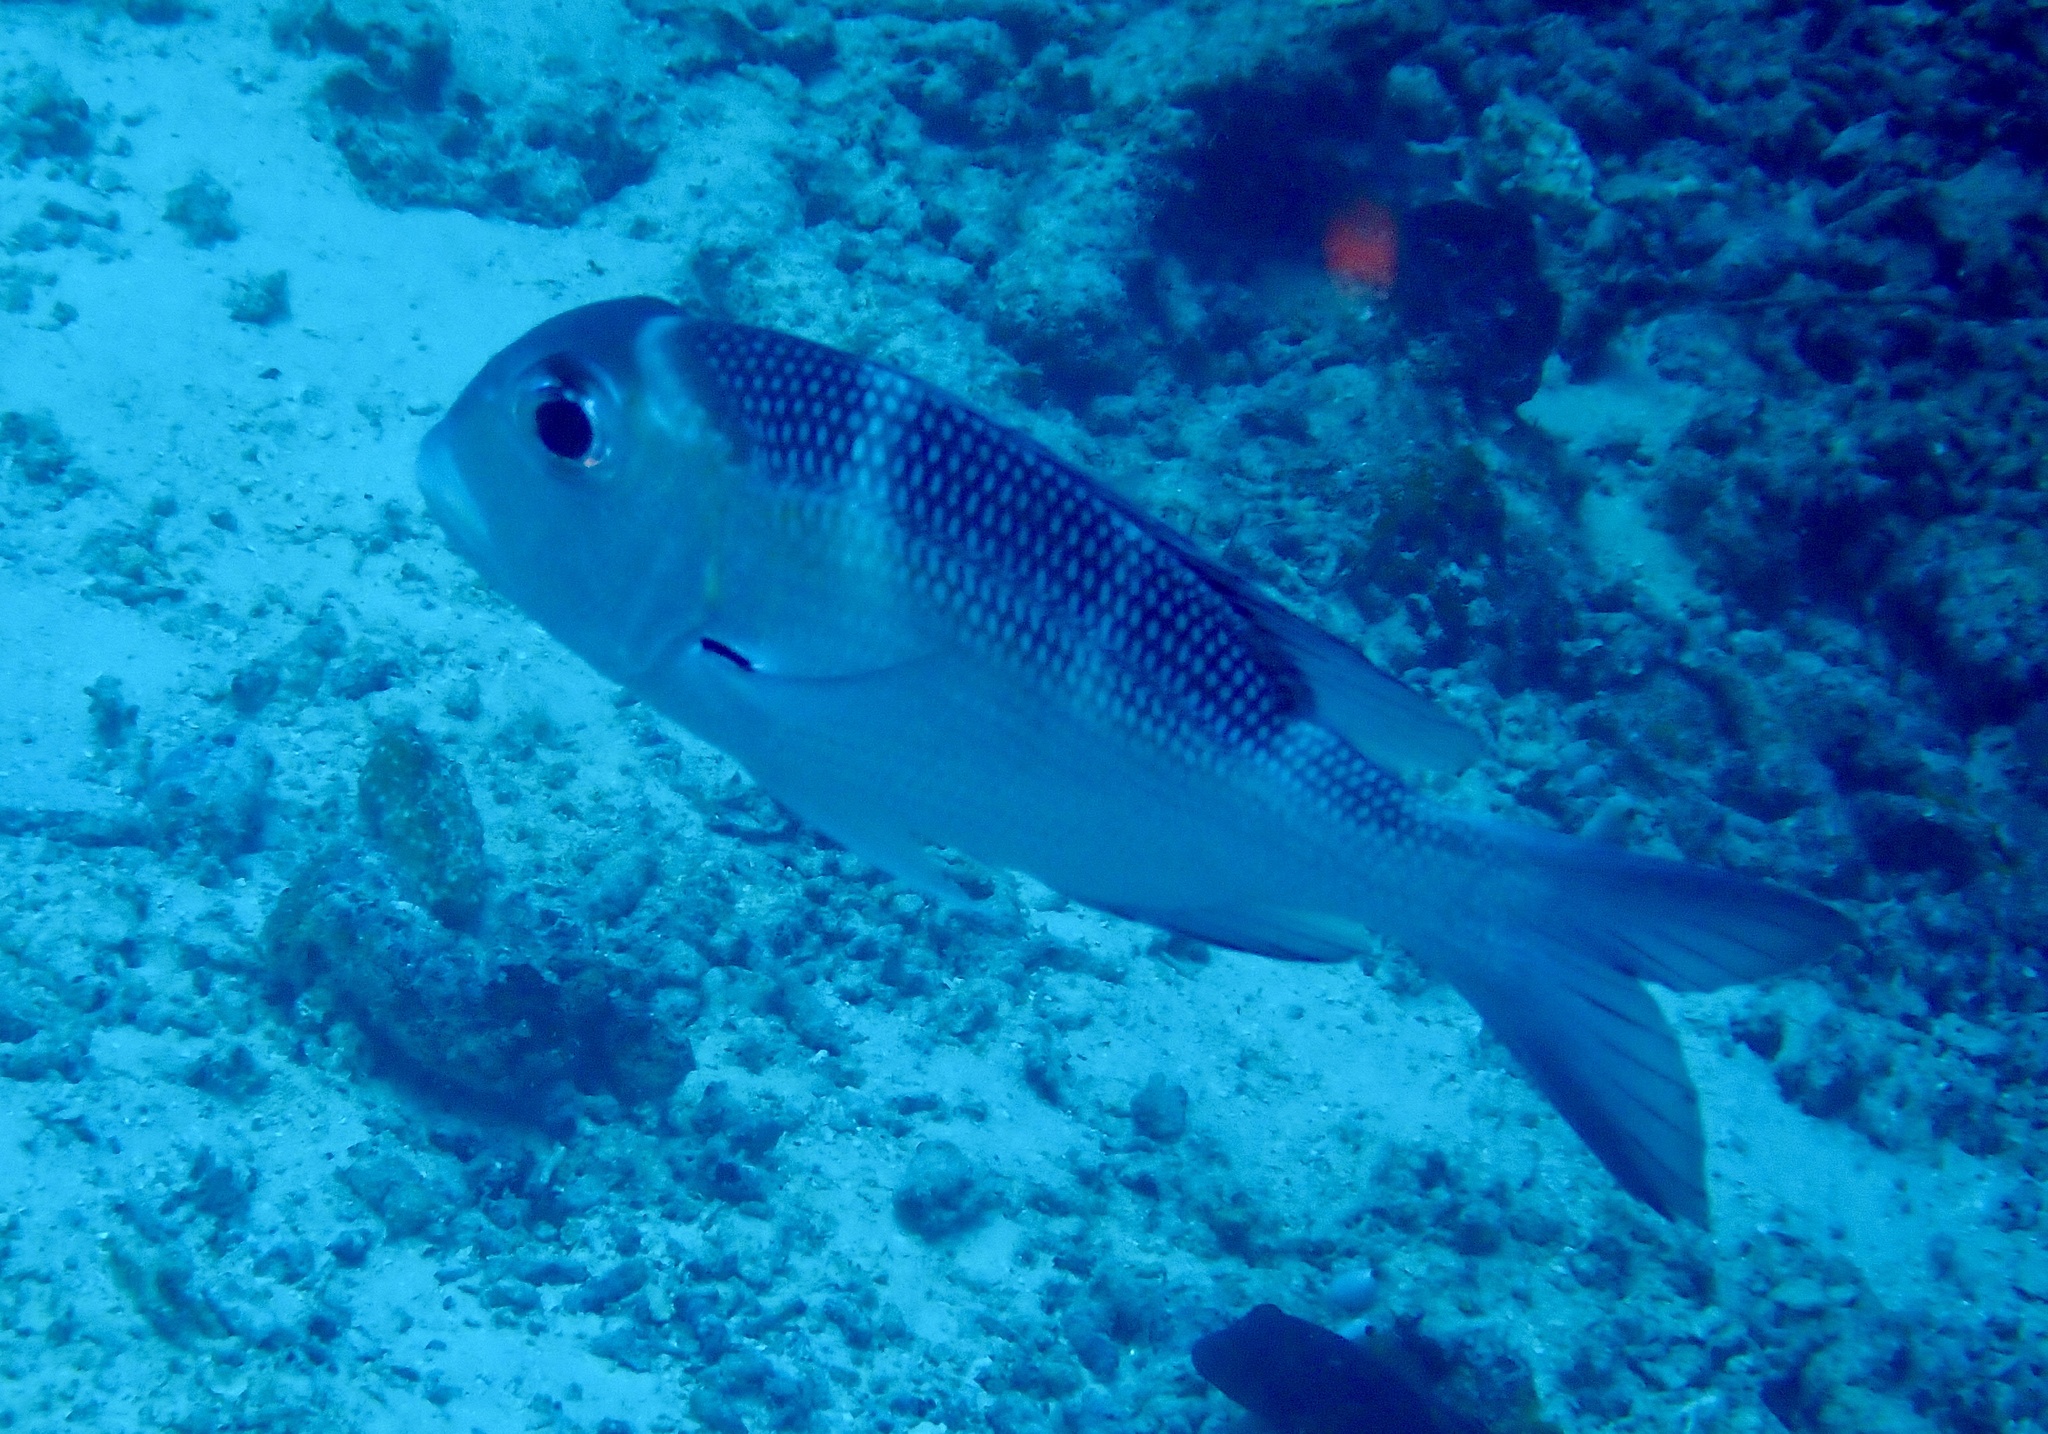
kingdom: Animalia
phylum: Chordata
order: Perciformes
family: Lethrinidae
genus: Monotaxis
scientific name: Monotaxis grandoculis
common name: Bigeye emperor
